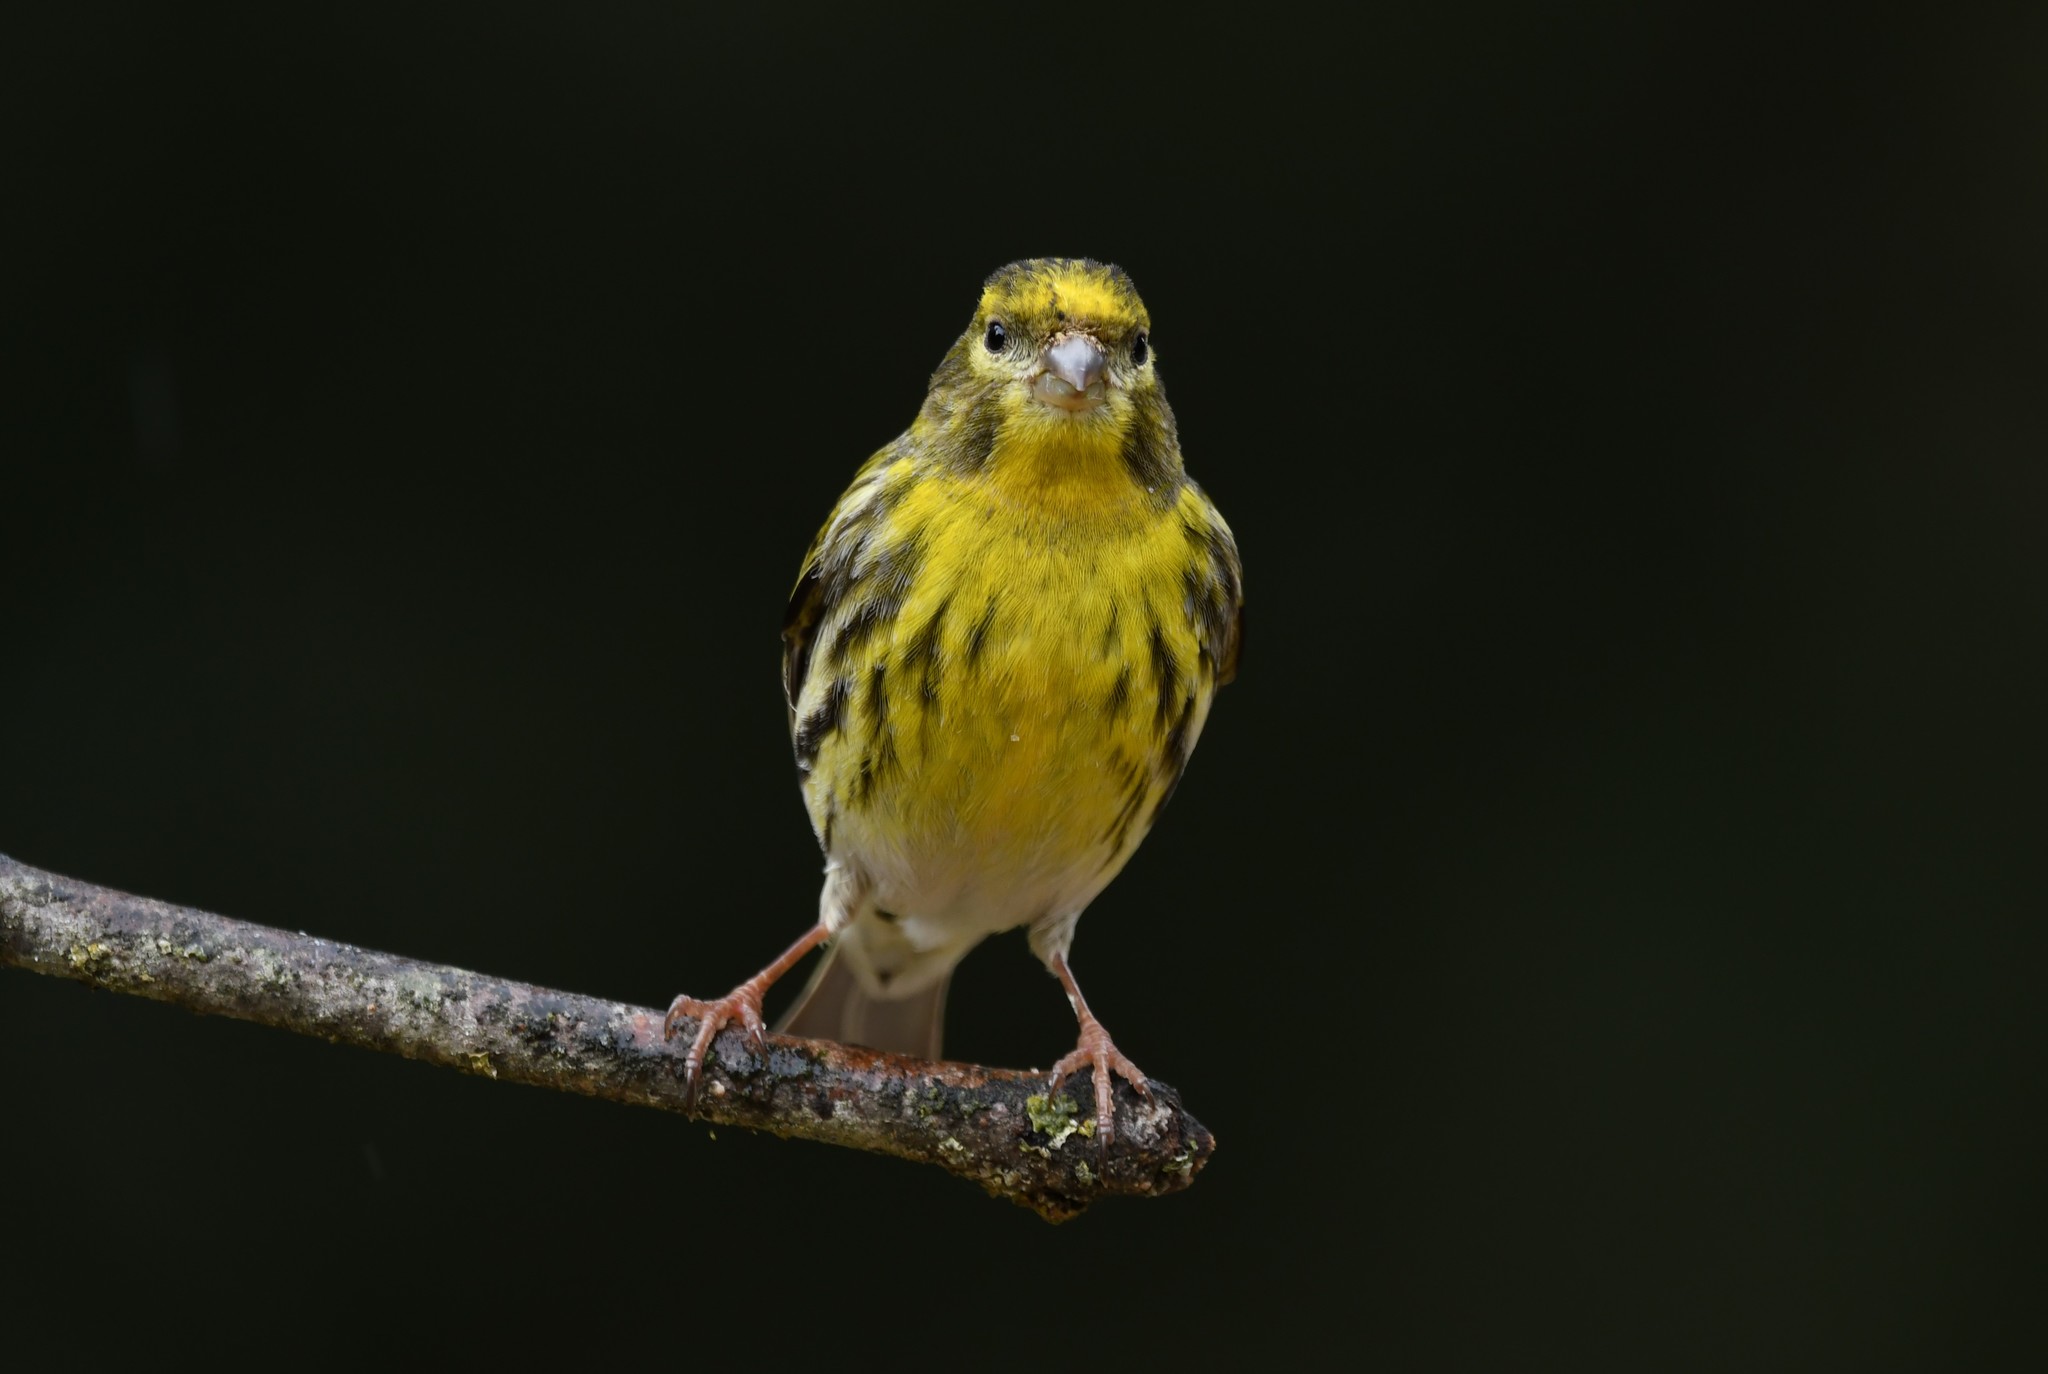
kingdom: Animalia
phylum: Chordata
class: Aves
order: Passeriformes
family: Fringillidae
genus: Serinus
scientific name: Serinus serinus
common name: European serin
